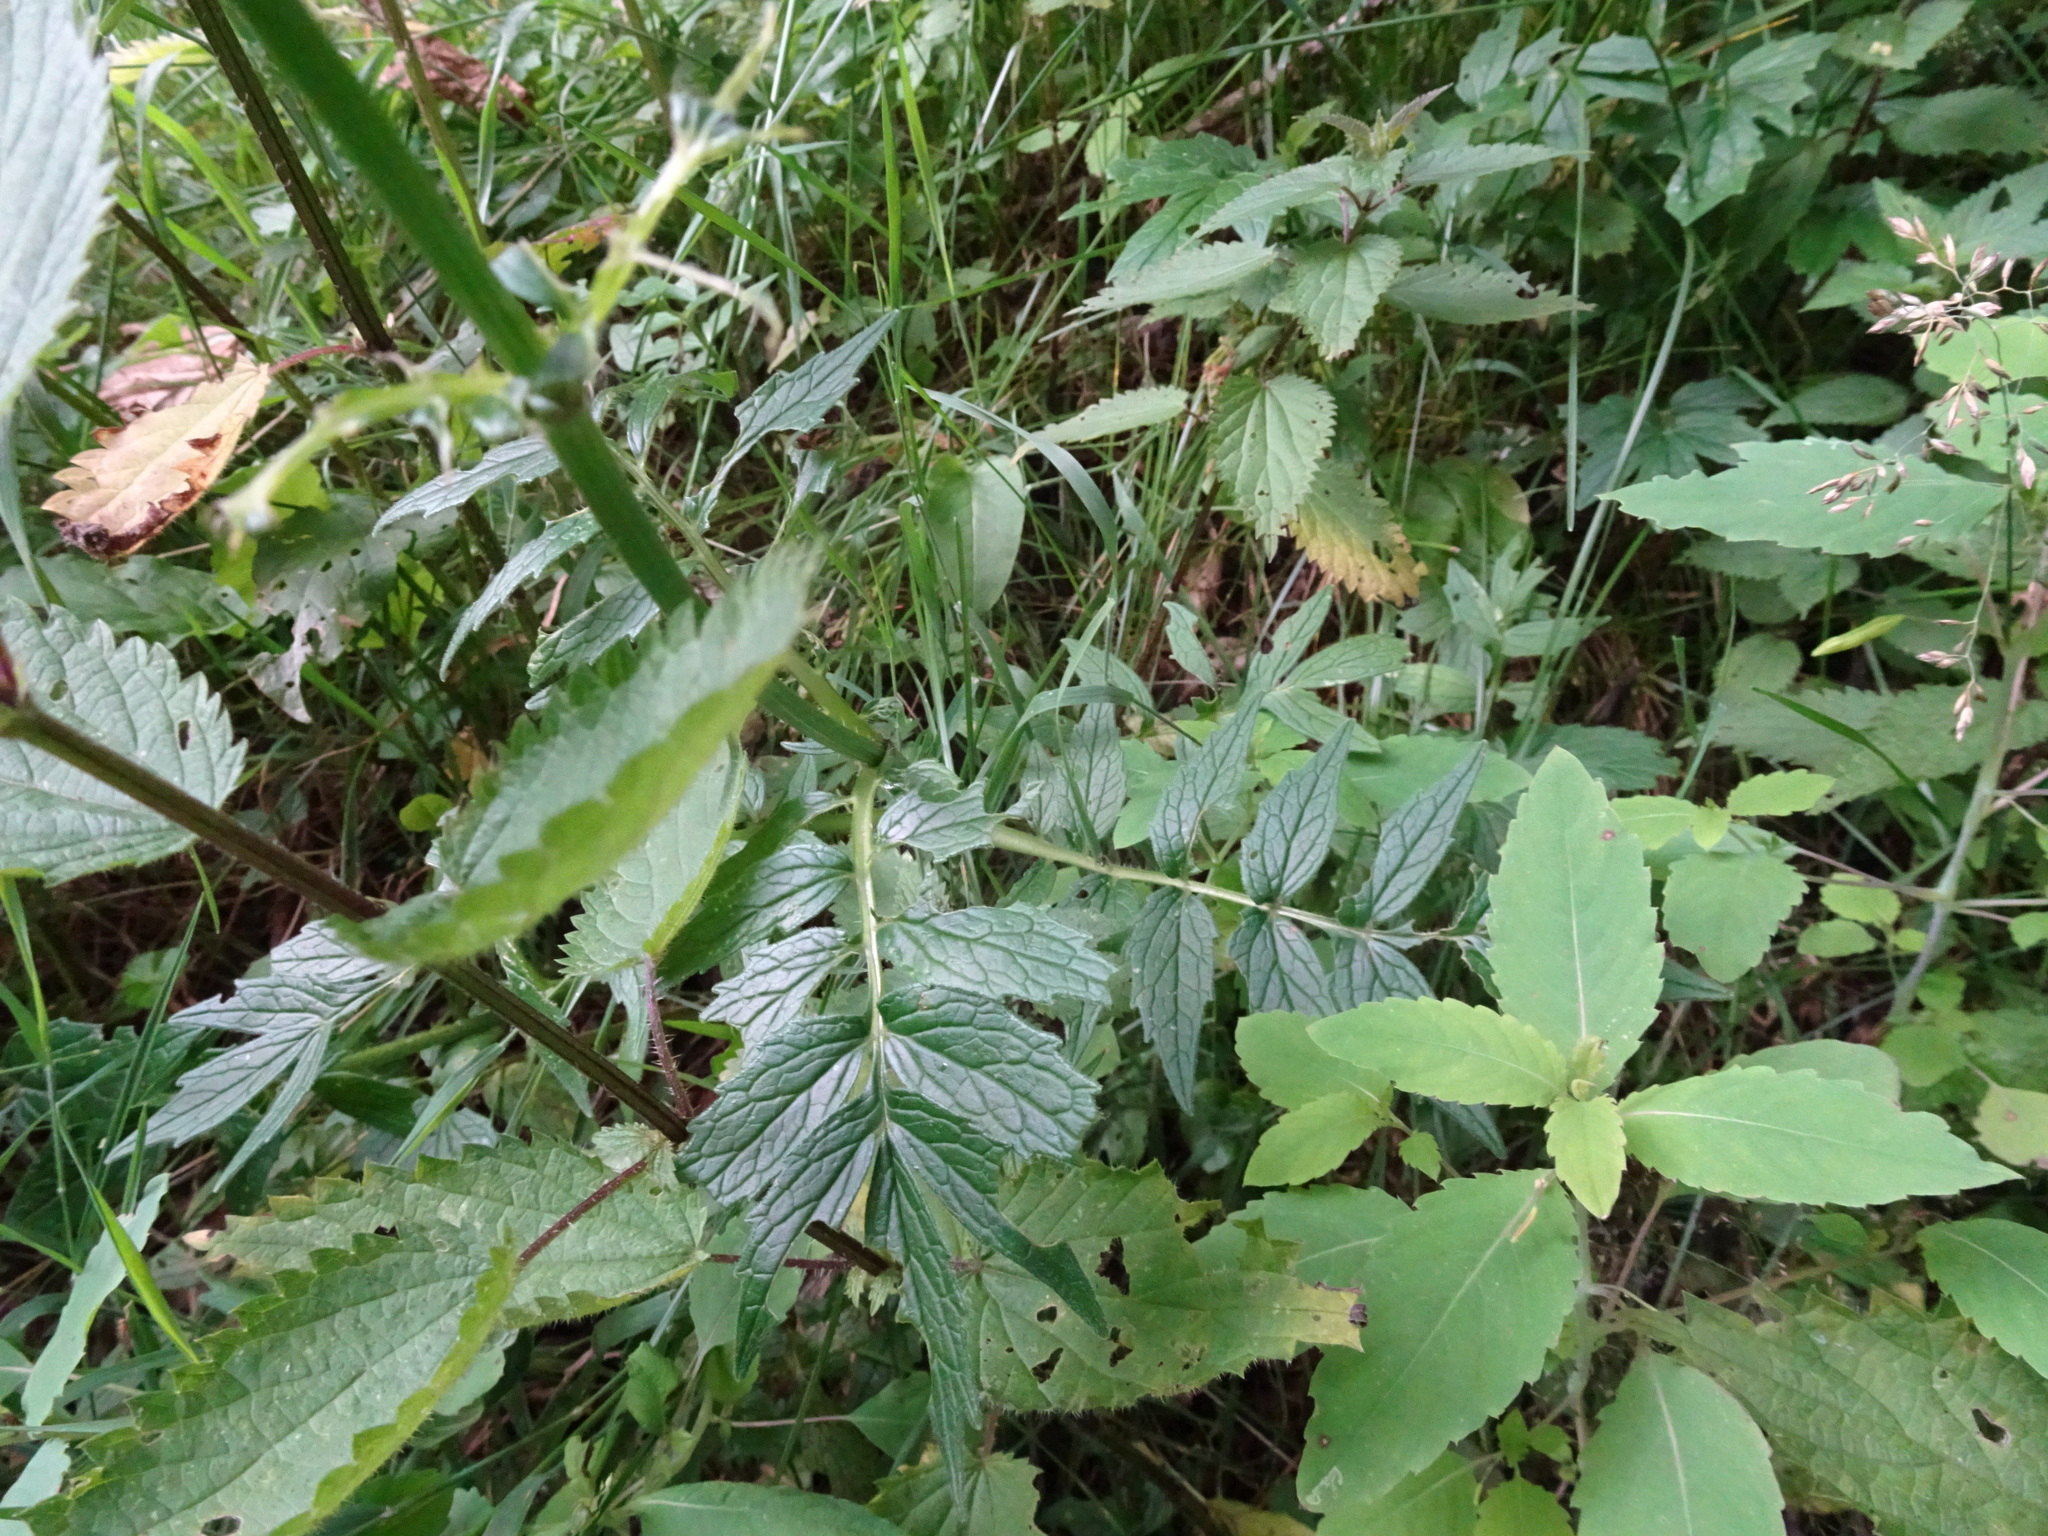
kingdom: Plantae
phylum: Tracheophyta
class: Magnoliopsida
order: Dipsacales
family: Caprifoliaceae
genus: Valeriana
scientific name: Valeriana officinalis
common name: Common valerian
